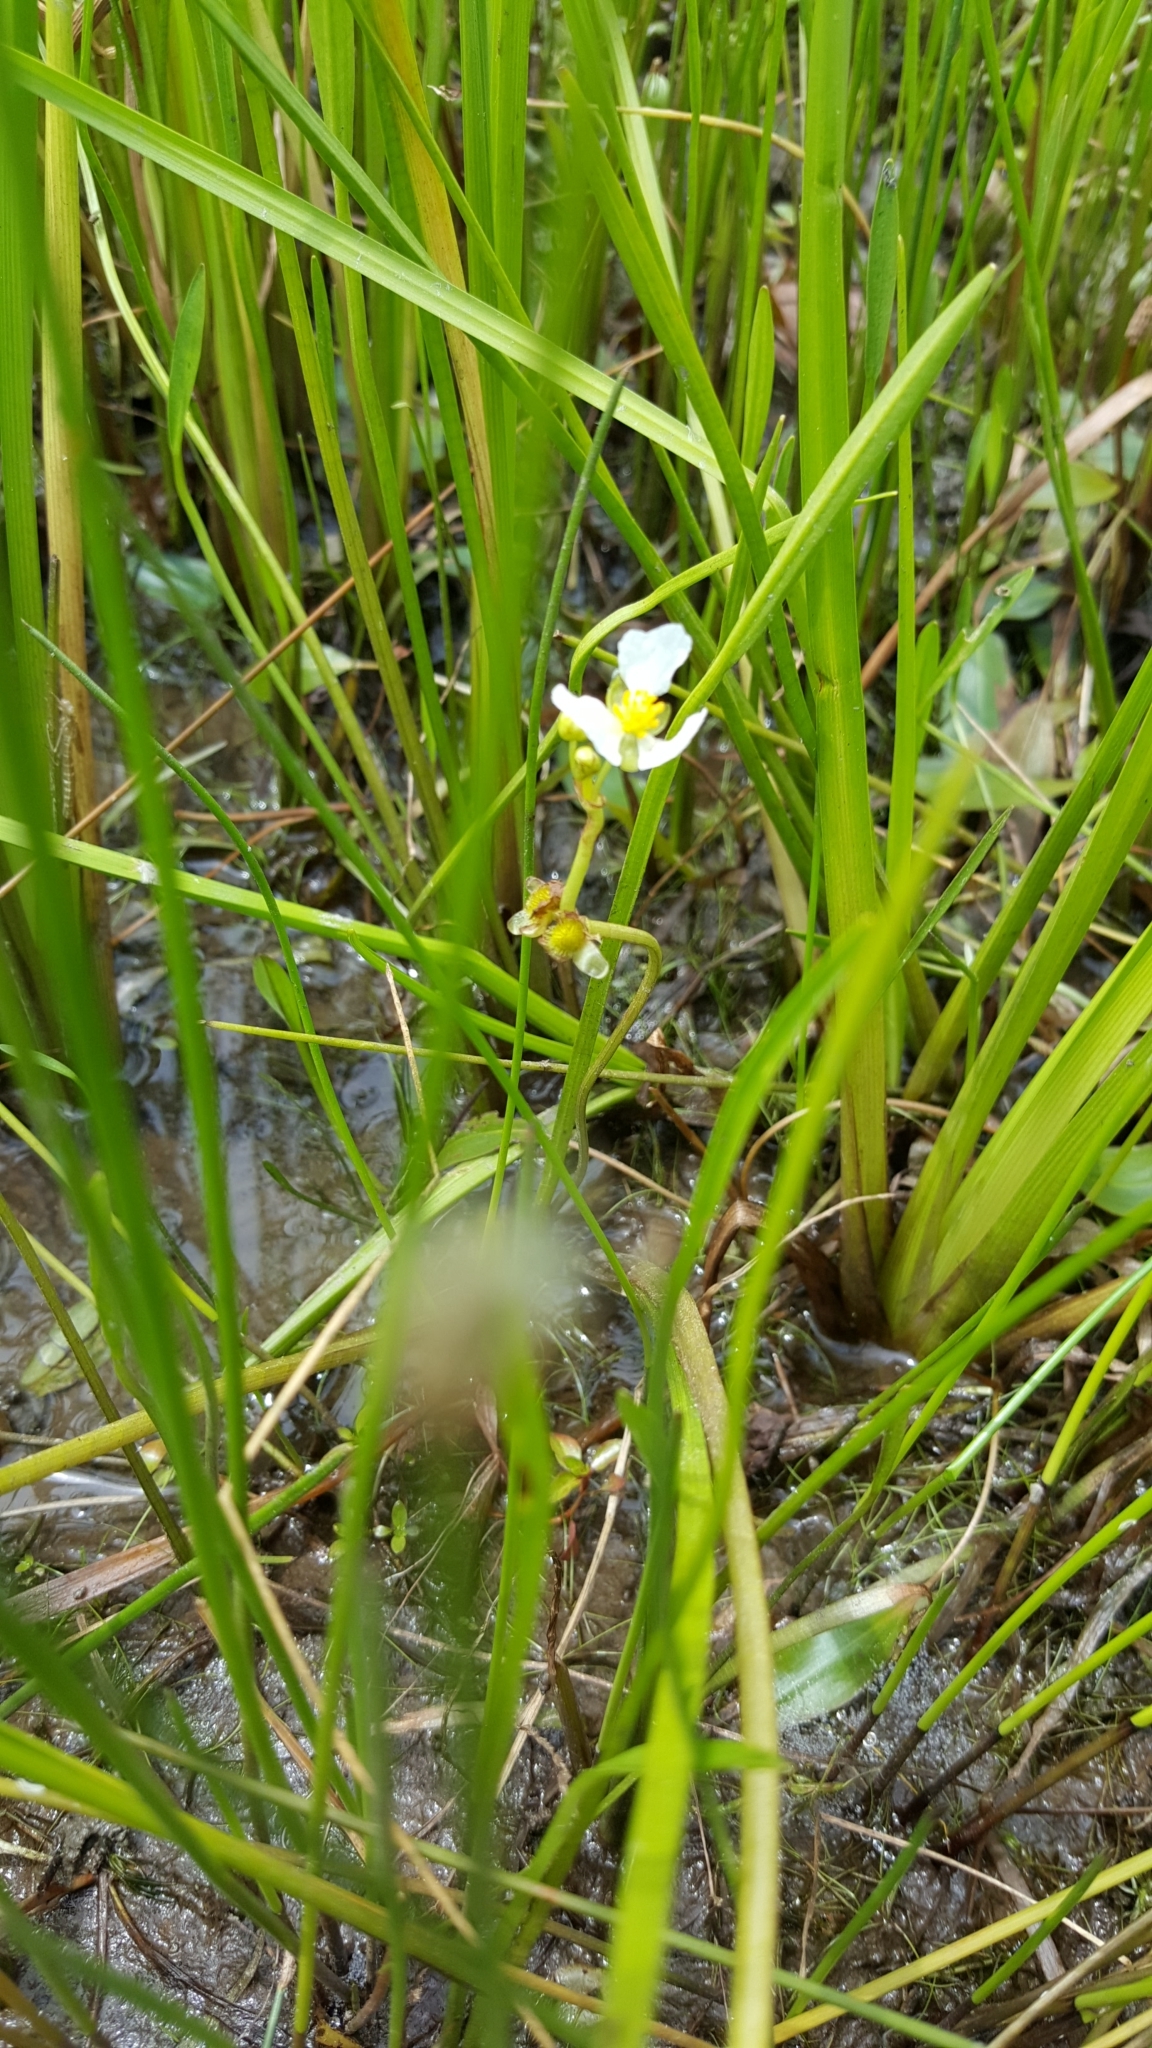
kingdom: Plantae
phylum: Tracheophyta
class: Liliopsida
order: Alismatales
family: Alismataceae
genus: Sagittaria
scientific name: Sagittaria rigida
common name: Canadian arrowhead
